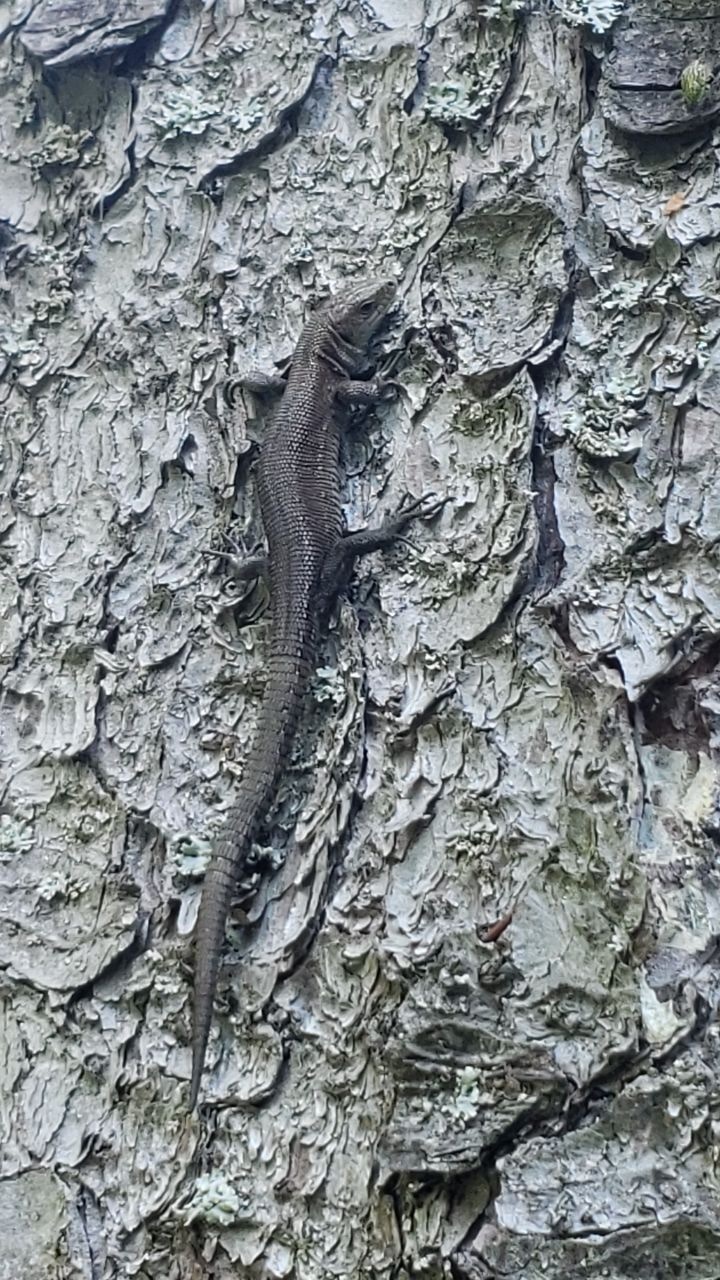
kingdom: Animalia
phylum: Chordata
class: Squamata
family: Lacertidae
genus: Zootoca
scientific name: Zootoca vivipara
